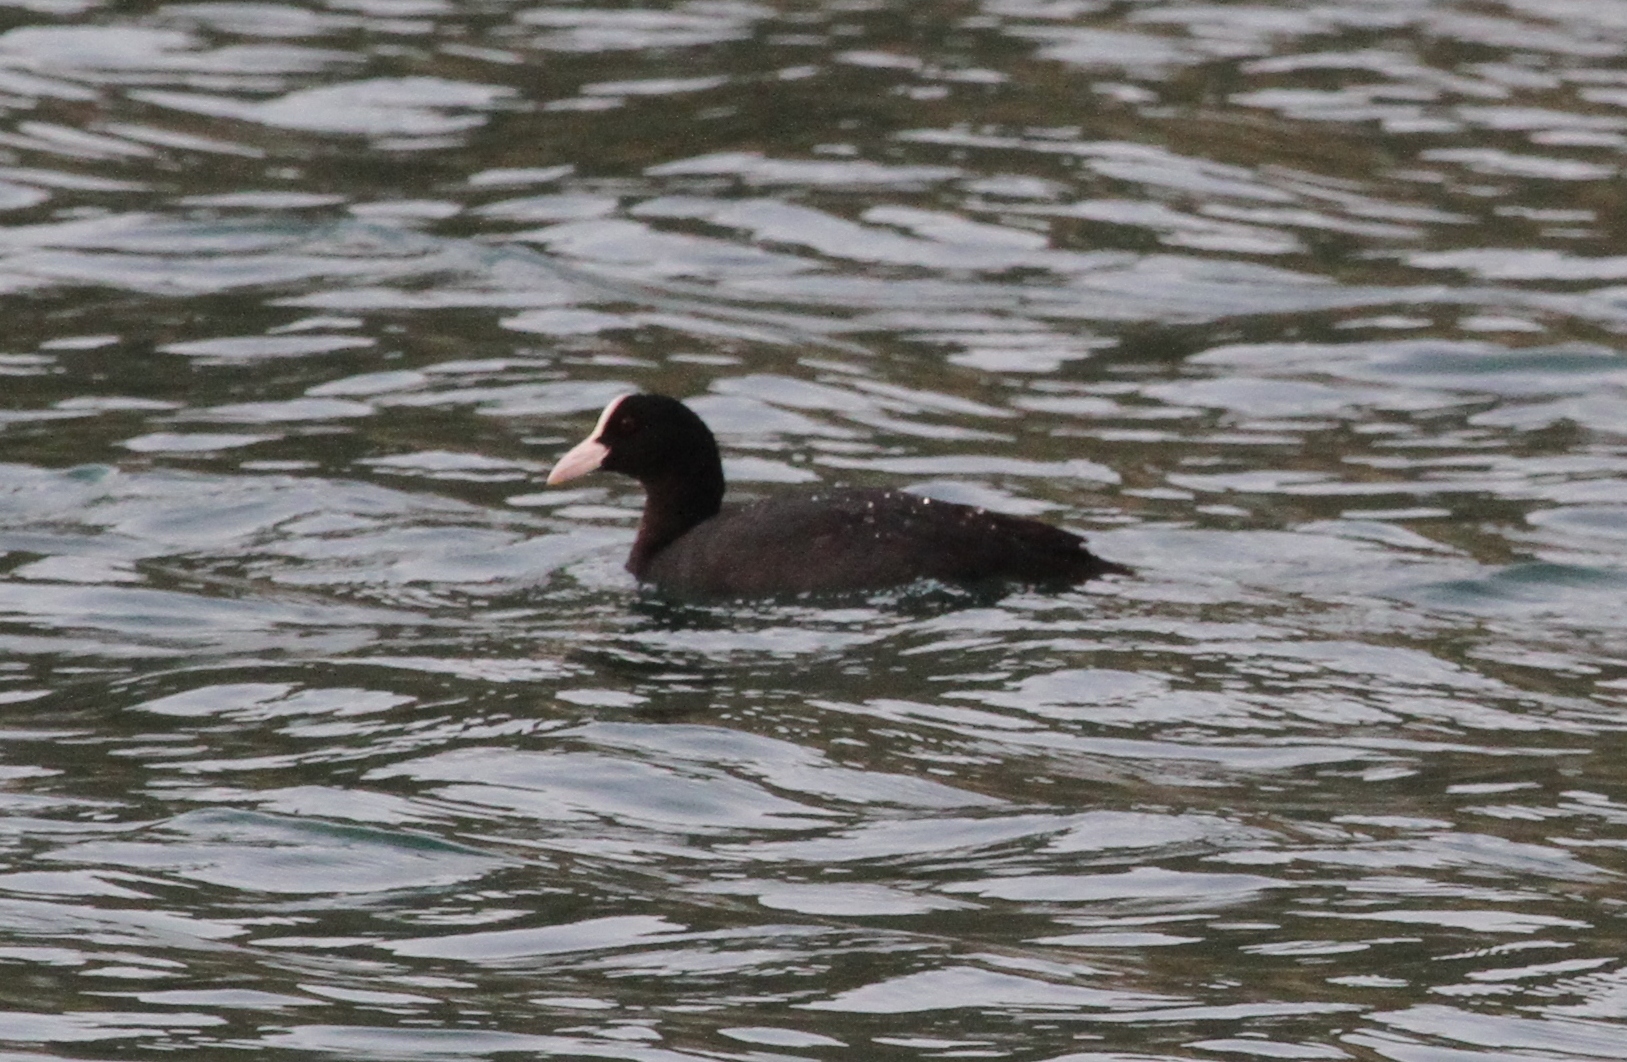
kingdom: Animalia
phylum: Chordata
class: Aves
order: Gruiformes
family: Rallidae
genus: Fulica
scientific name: Fulica atra
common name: Eurasian coot
